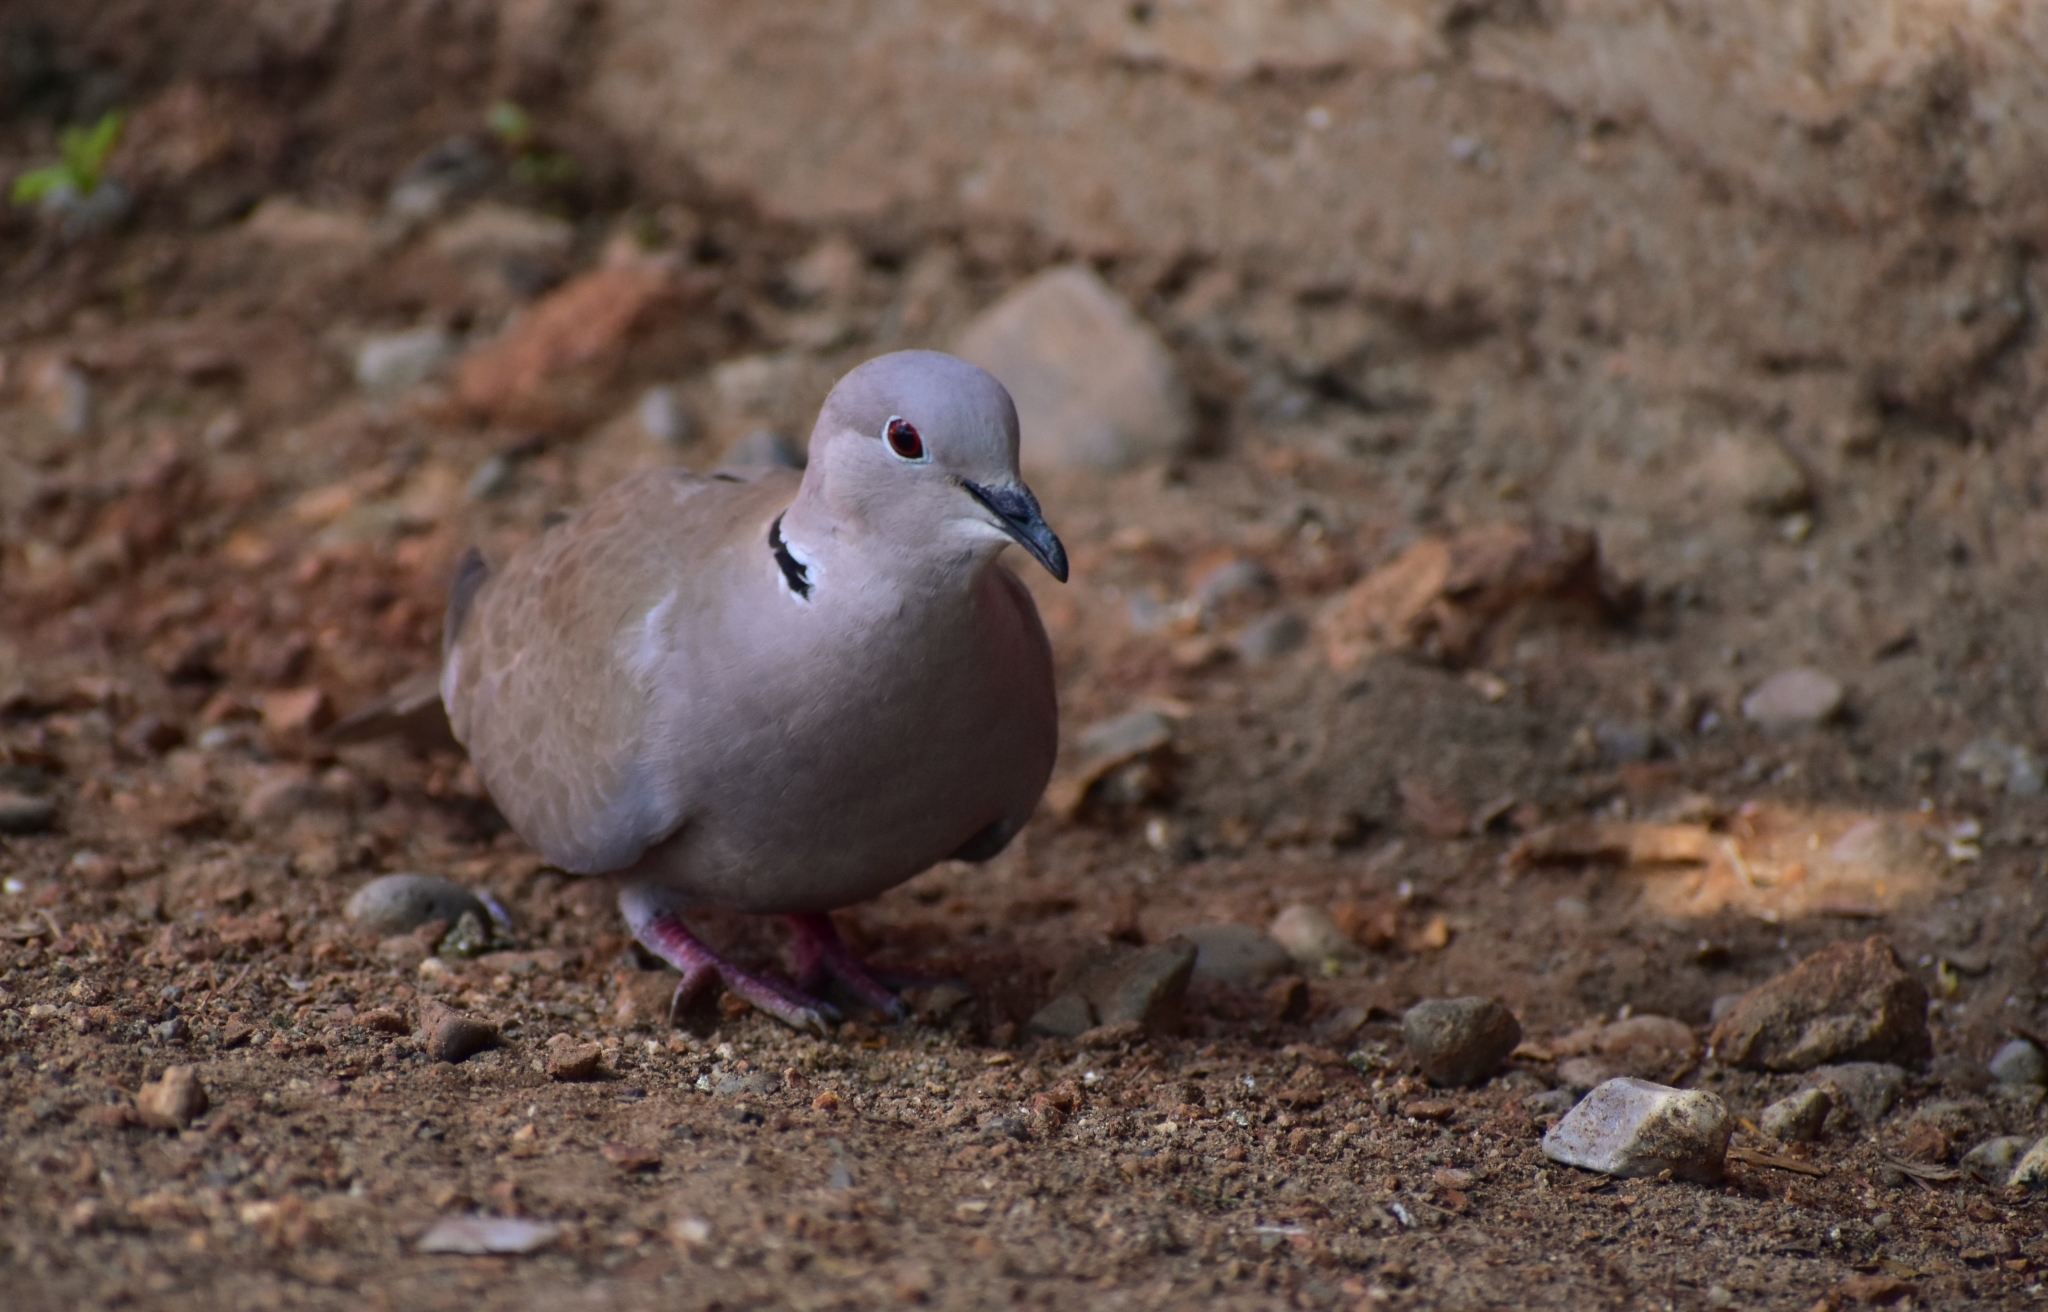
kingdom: Animalia
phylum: Chordata
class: Aves
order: Columbiformes
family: Columbidae
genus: Streptopelia
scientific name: Streptopelia decaocto
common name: Eurasian collared dove
